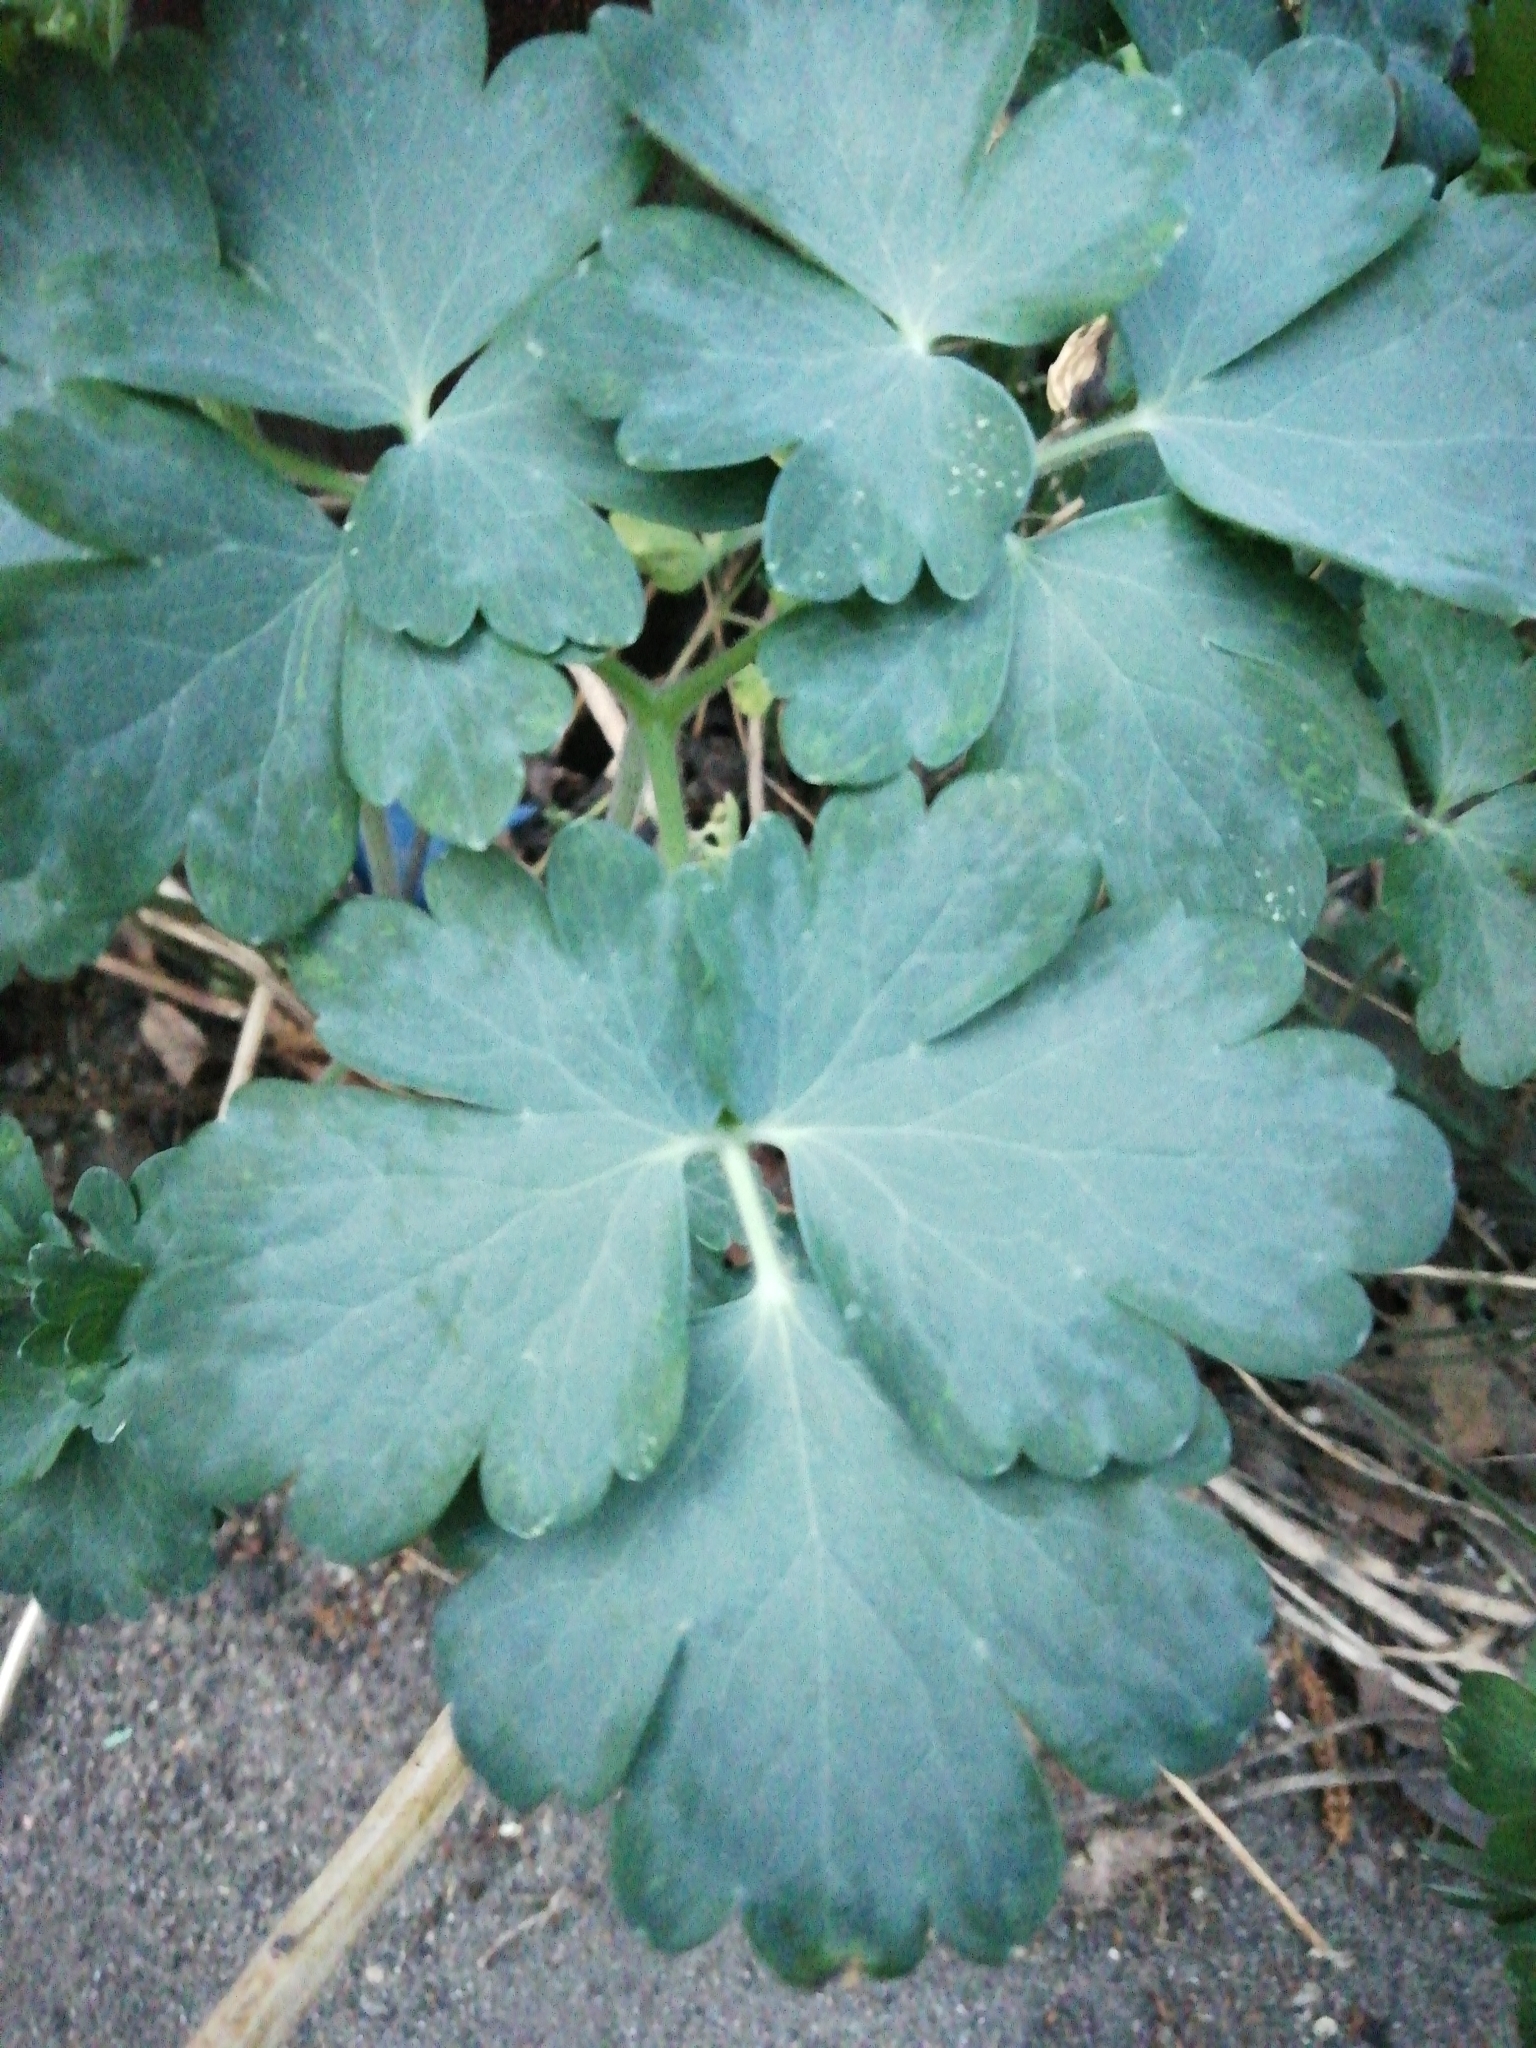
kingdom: Plantae
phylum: Tracheophyta
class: Magnoliopsida
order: Ranunculales
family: Ranunculaceae
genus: Aquilegia
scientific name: Aquilegia vulgaris
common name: Columbine
